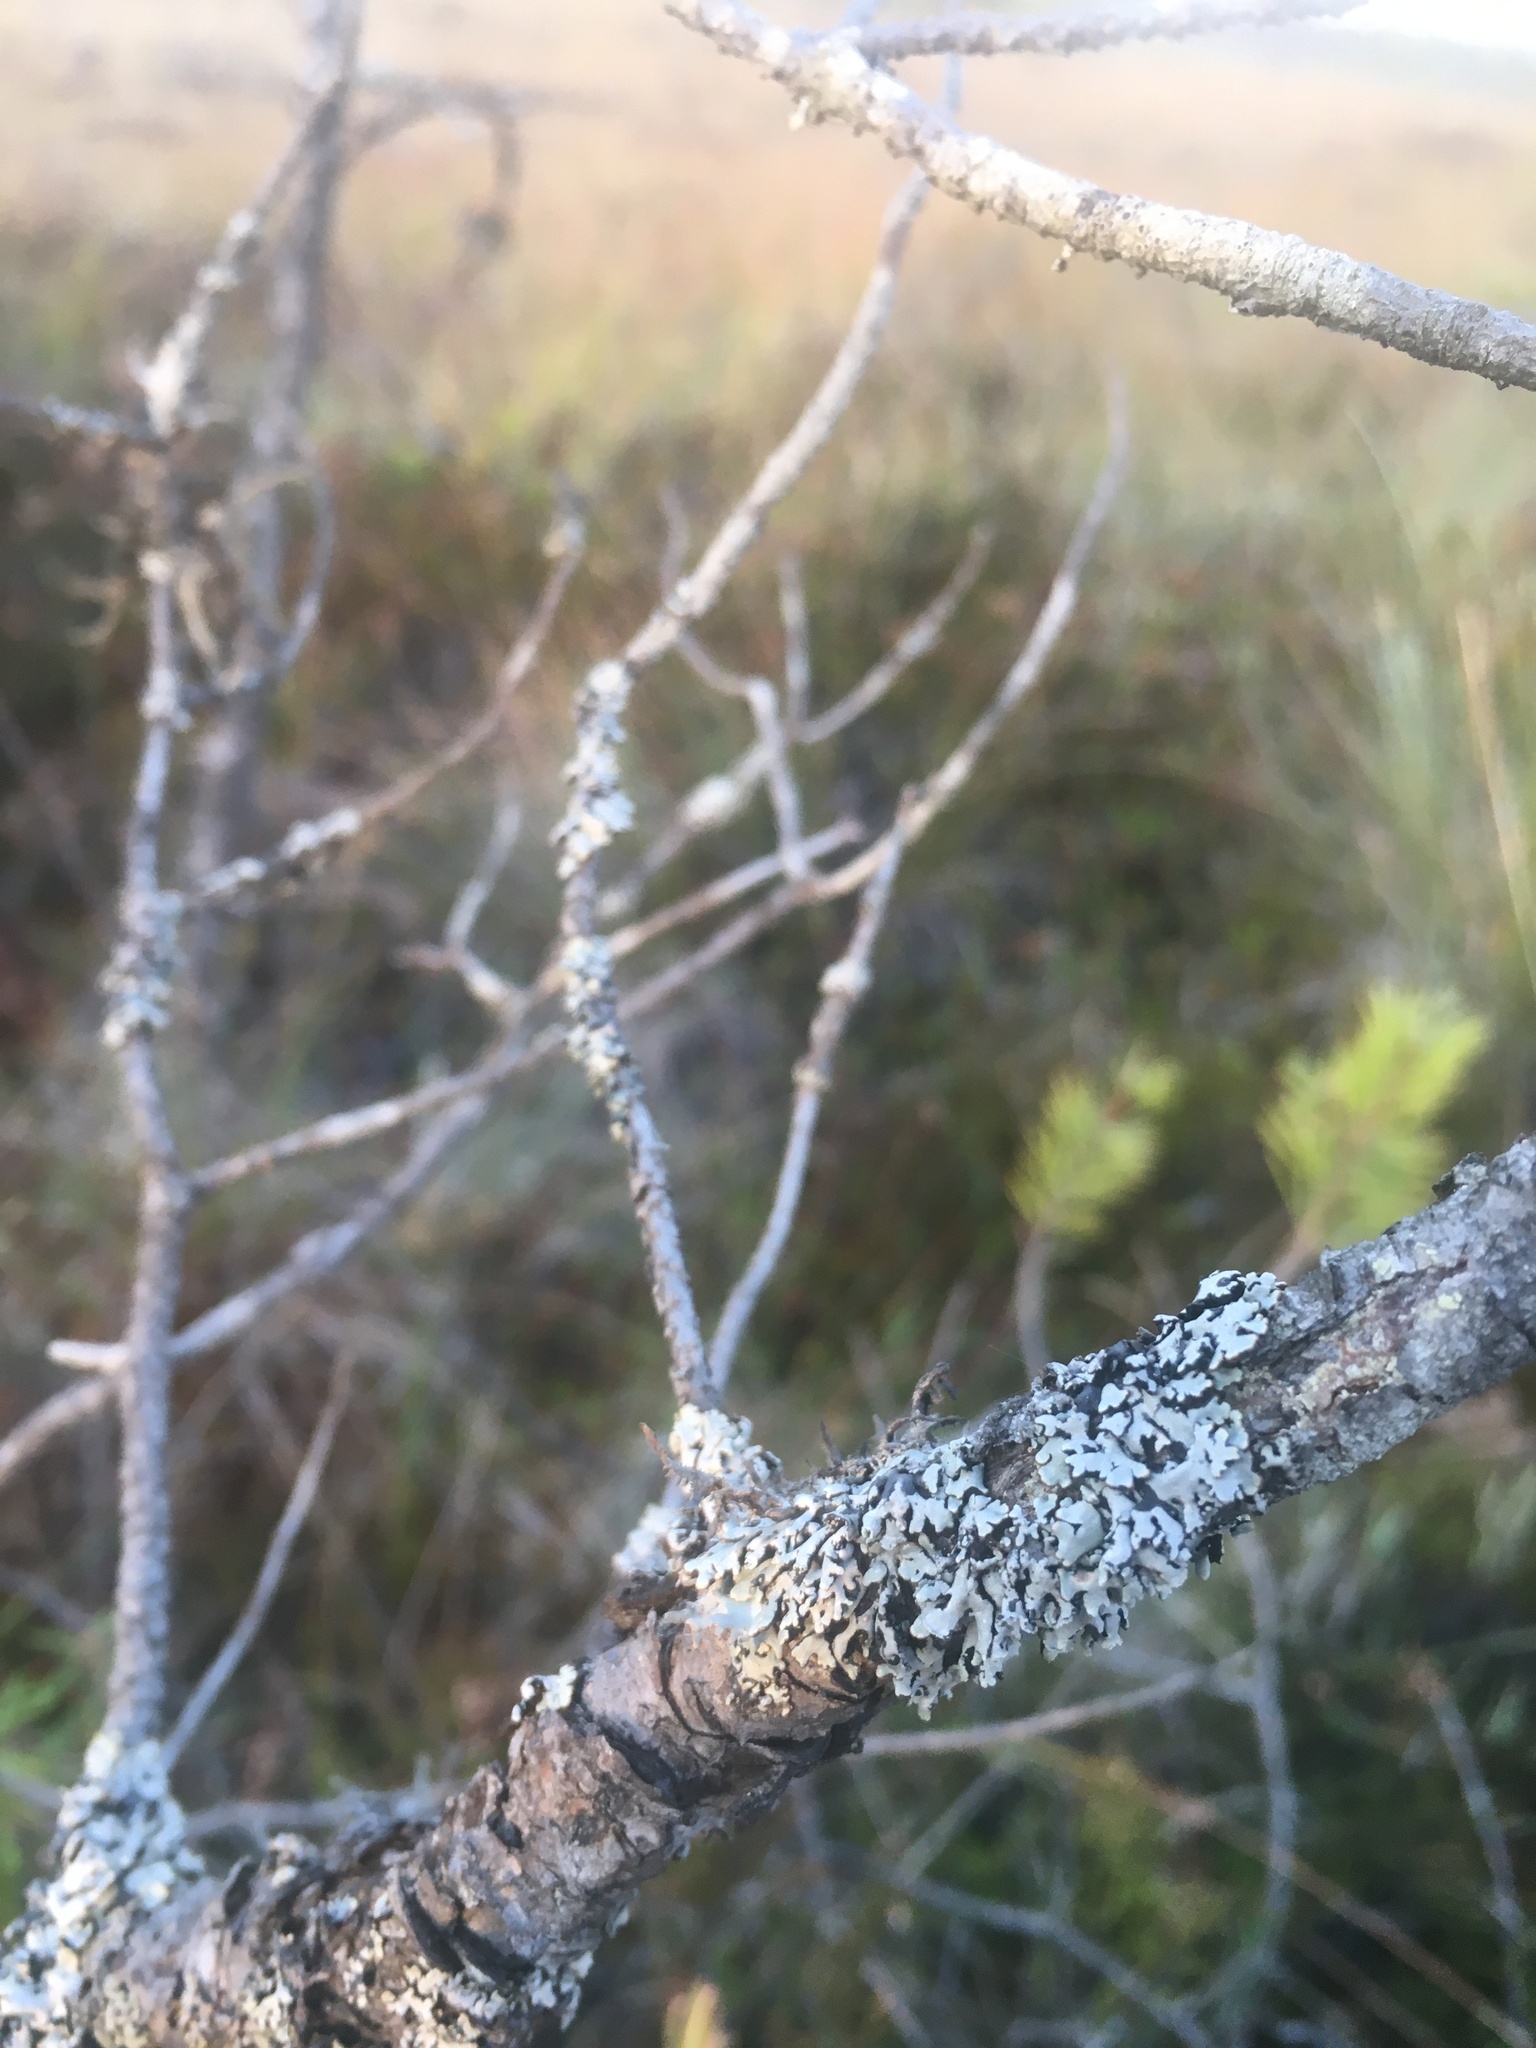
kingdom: Fungi
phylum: Ascomycota
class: Lecanoromycetes
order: Lecanorales
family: Parmeliaceae
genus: Hypogymnia
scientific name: Hypogymnia physodes
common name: Dark crottle
